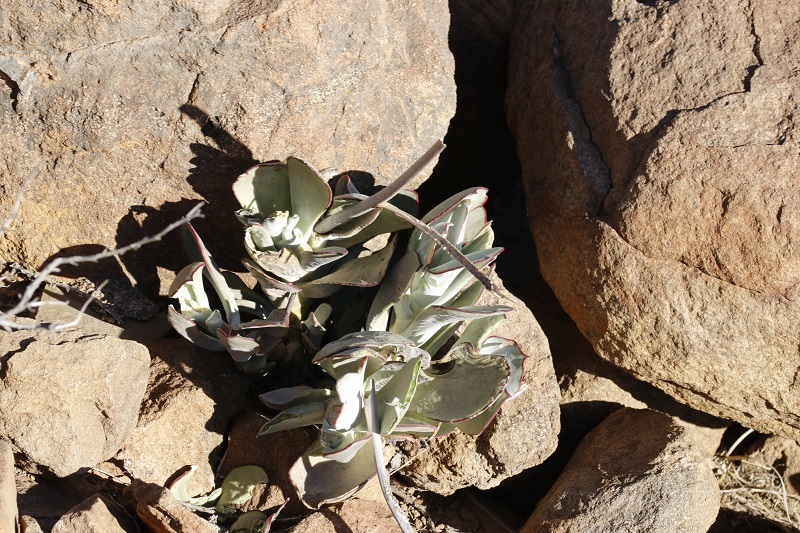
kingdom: Plantae
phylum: Tracheophyta
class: Magnoliopsida
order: Saxifragales
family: Crassulaceae
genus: Cotyledon
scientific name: Cotyledon orbiculata
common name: Pig's ear
